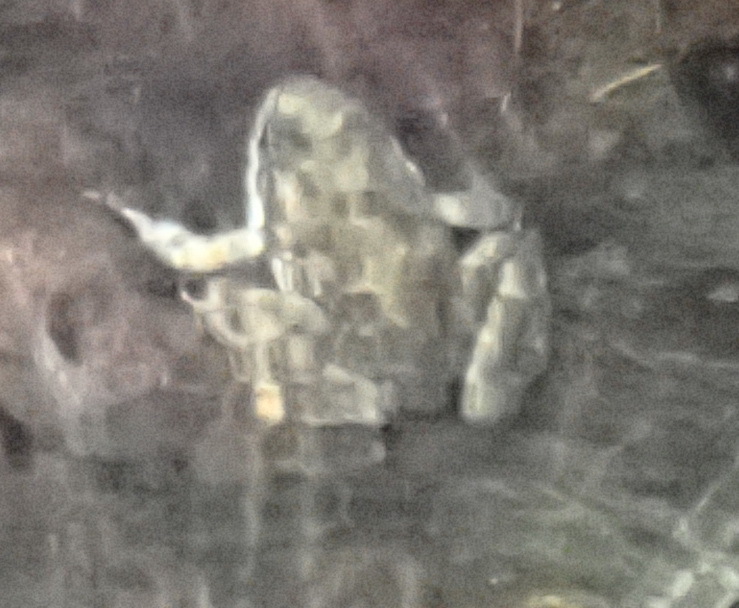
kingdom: Animalia
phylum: Chordata
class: Amphibia
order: Anura
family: Pyxicephalidae
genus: Amietia
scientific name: Amietia fuscigula
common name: Cape rana
